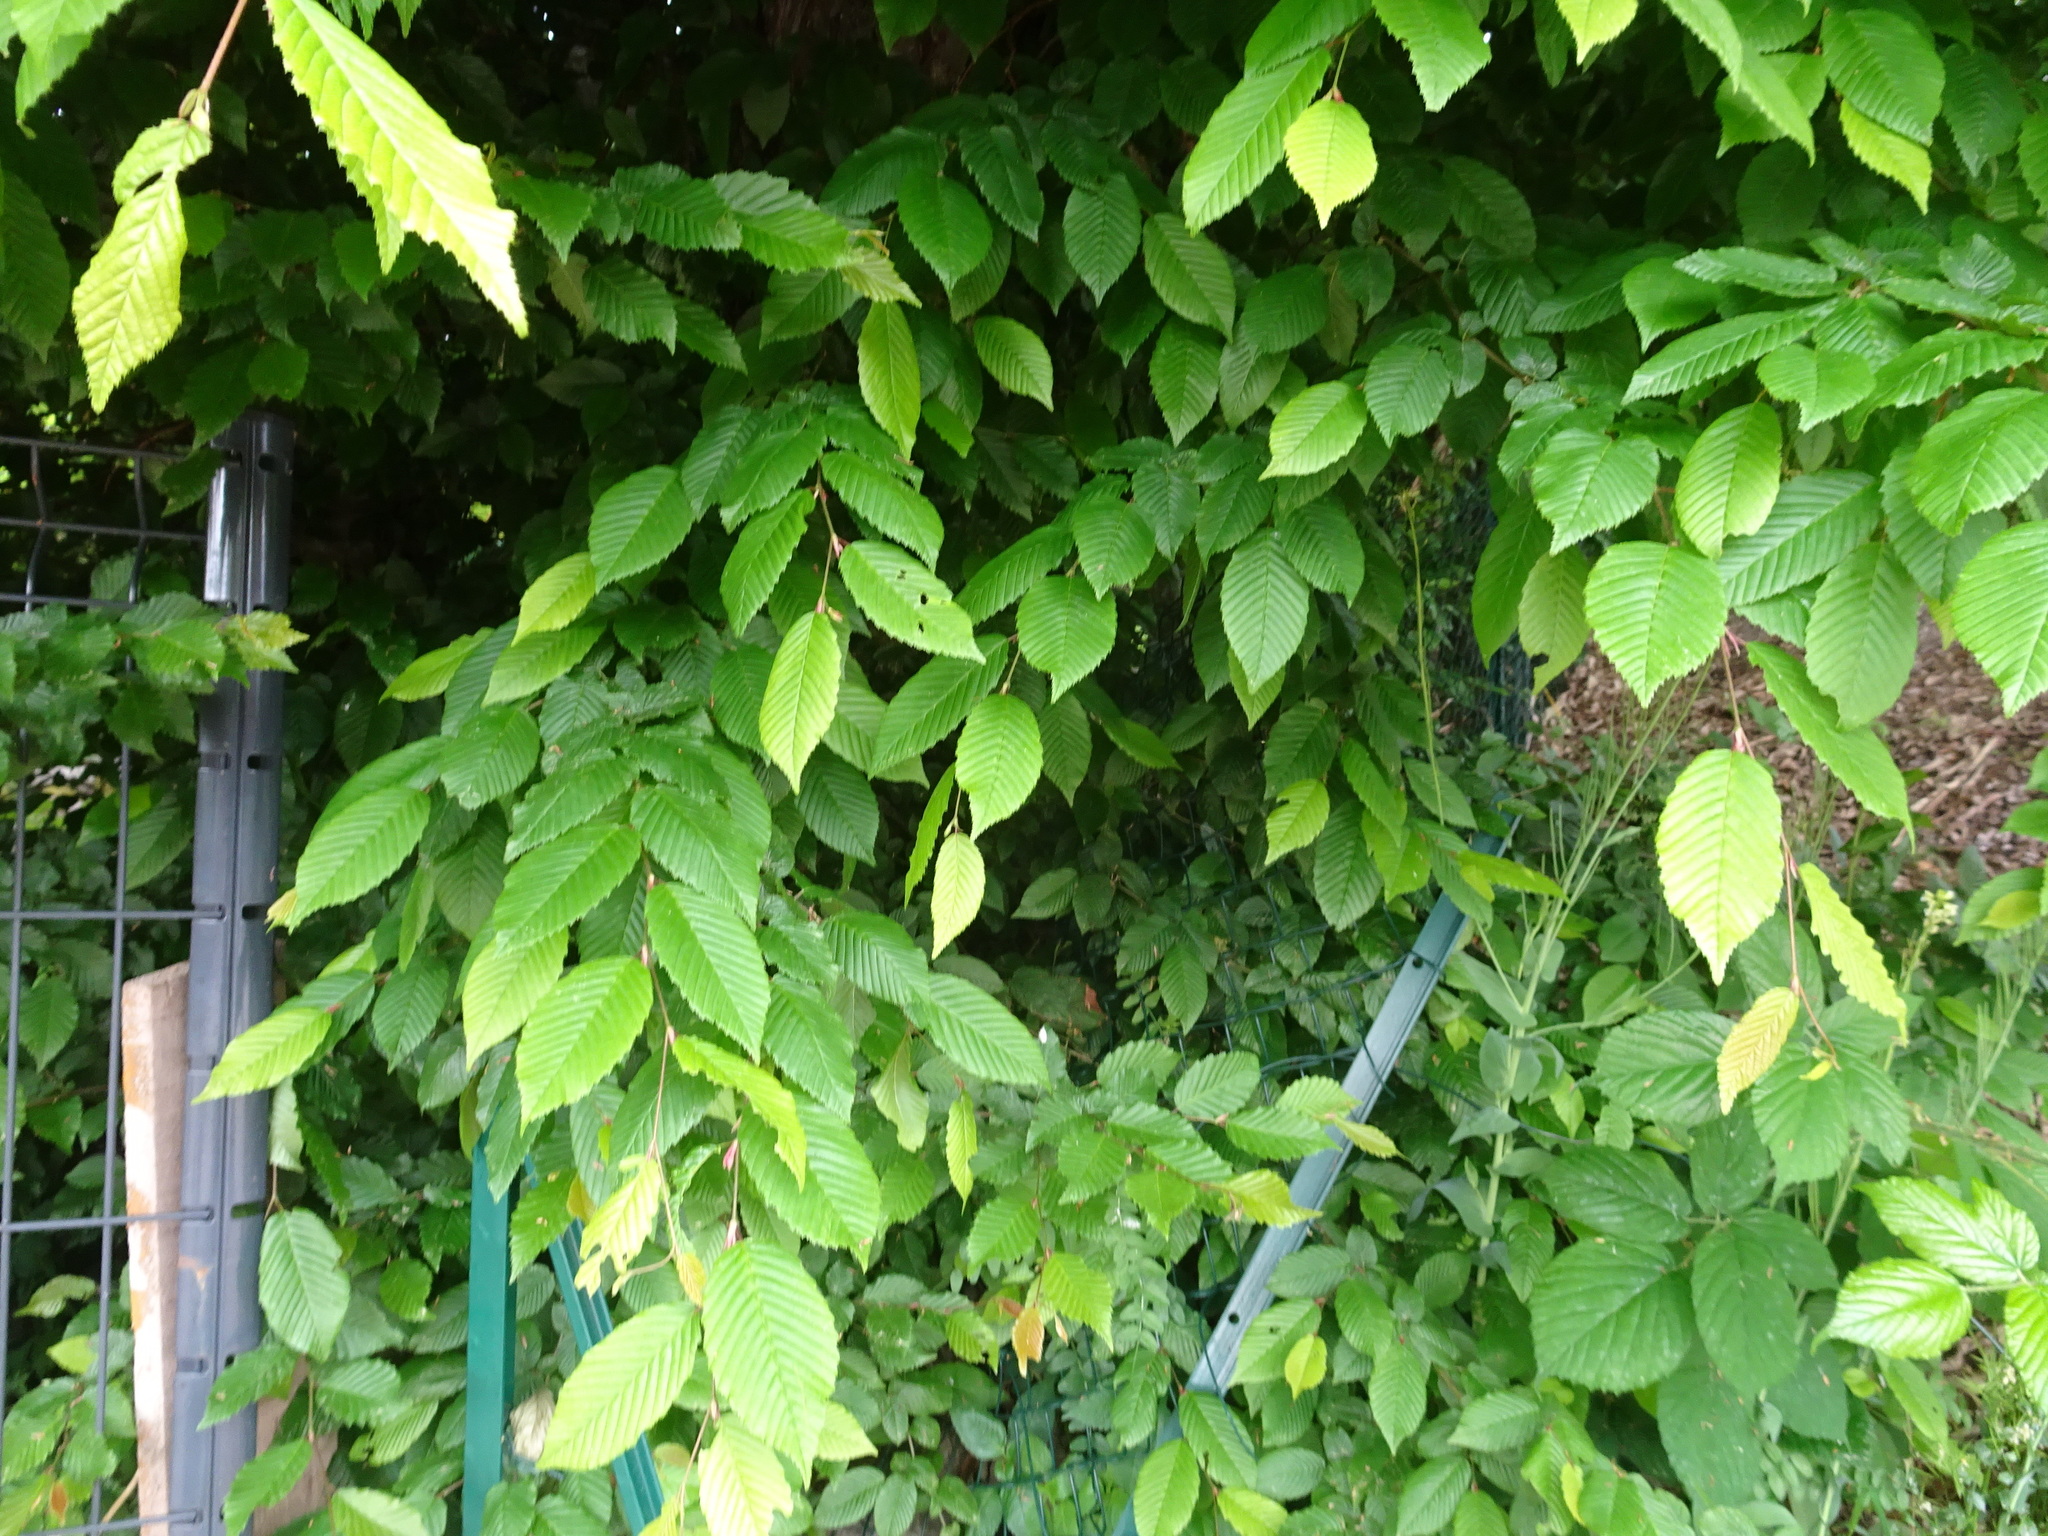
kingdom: Plantae
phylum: Tracheophyta
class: Magnoliopsida
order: Fagales
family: Betulaceae
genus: Carpinus
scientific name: Carpinus betulus
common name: Hornbeam
